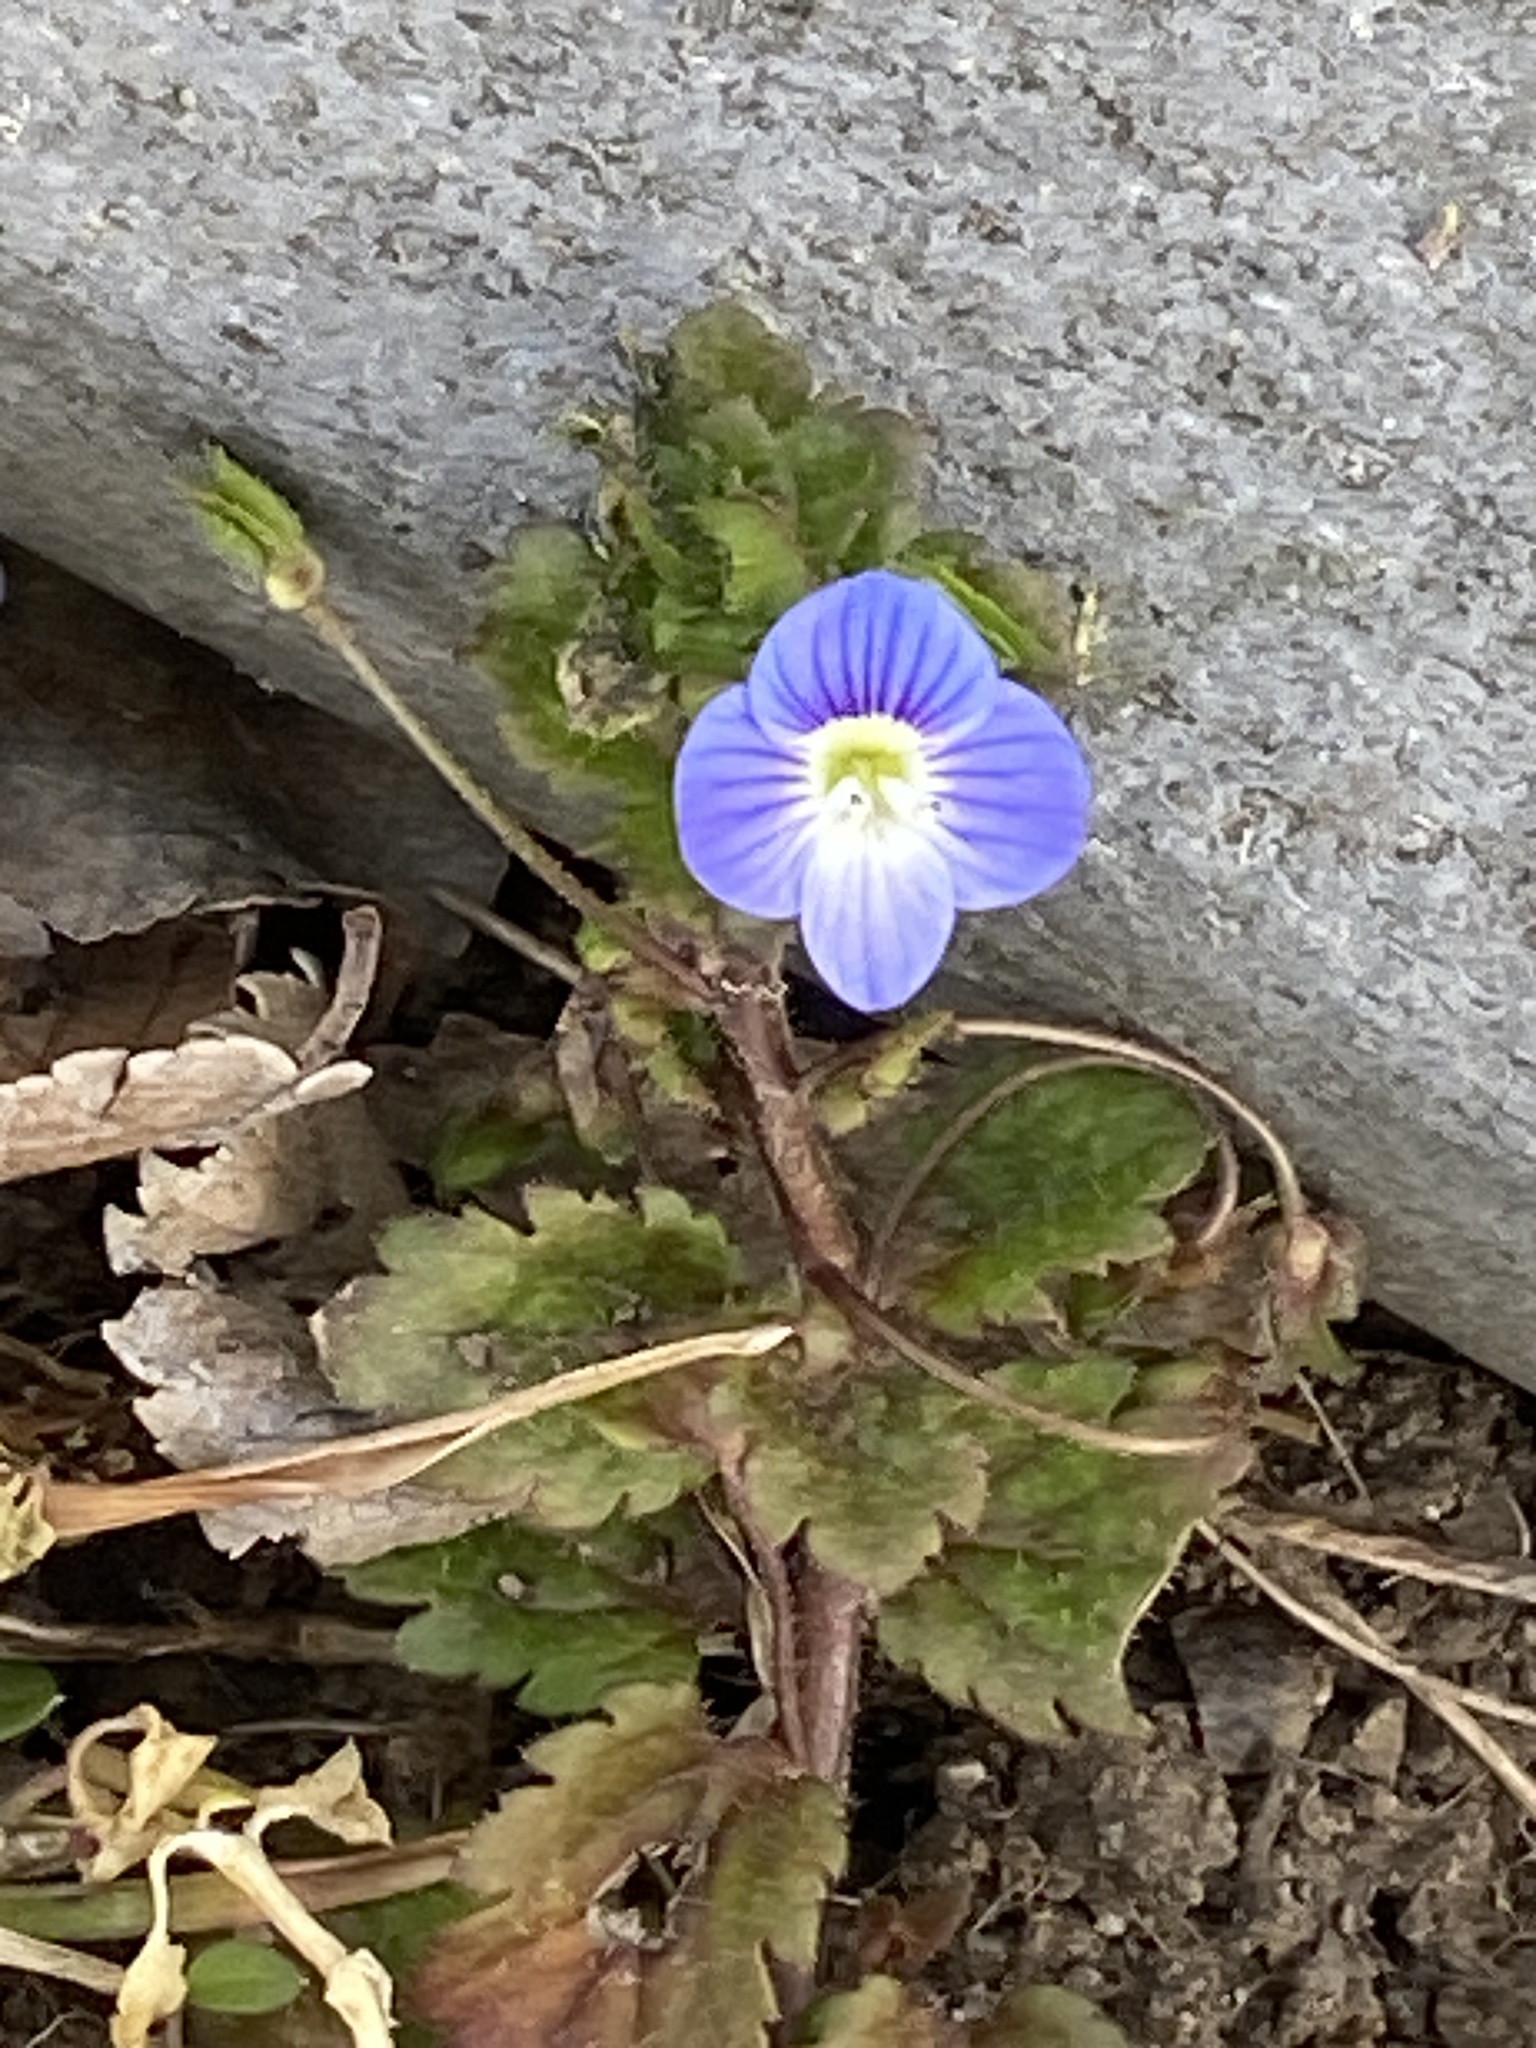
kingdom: Plantae
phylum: Tracheophyta
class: Magnoliopsida
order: Lamiales
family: Plantaginaceae
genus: Veronica
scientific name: Veronica persica
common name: Common field-speedwell
